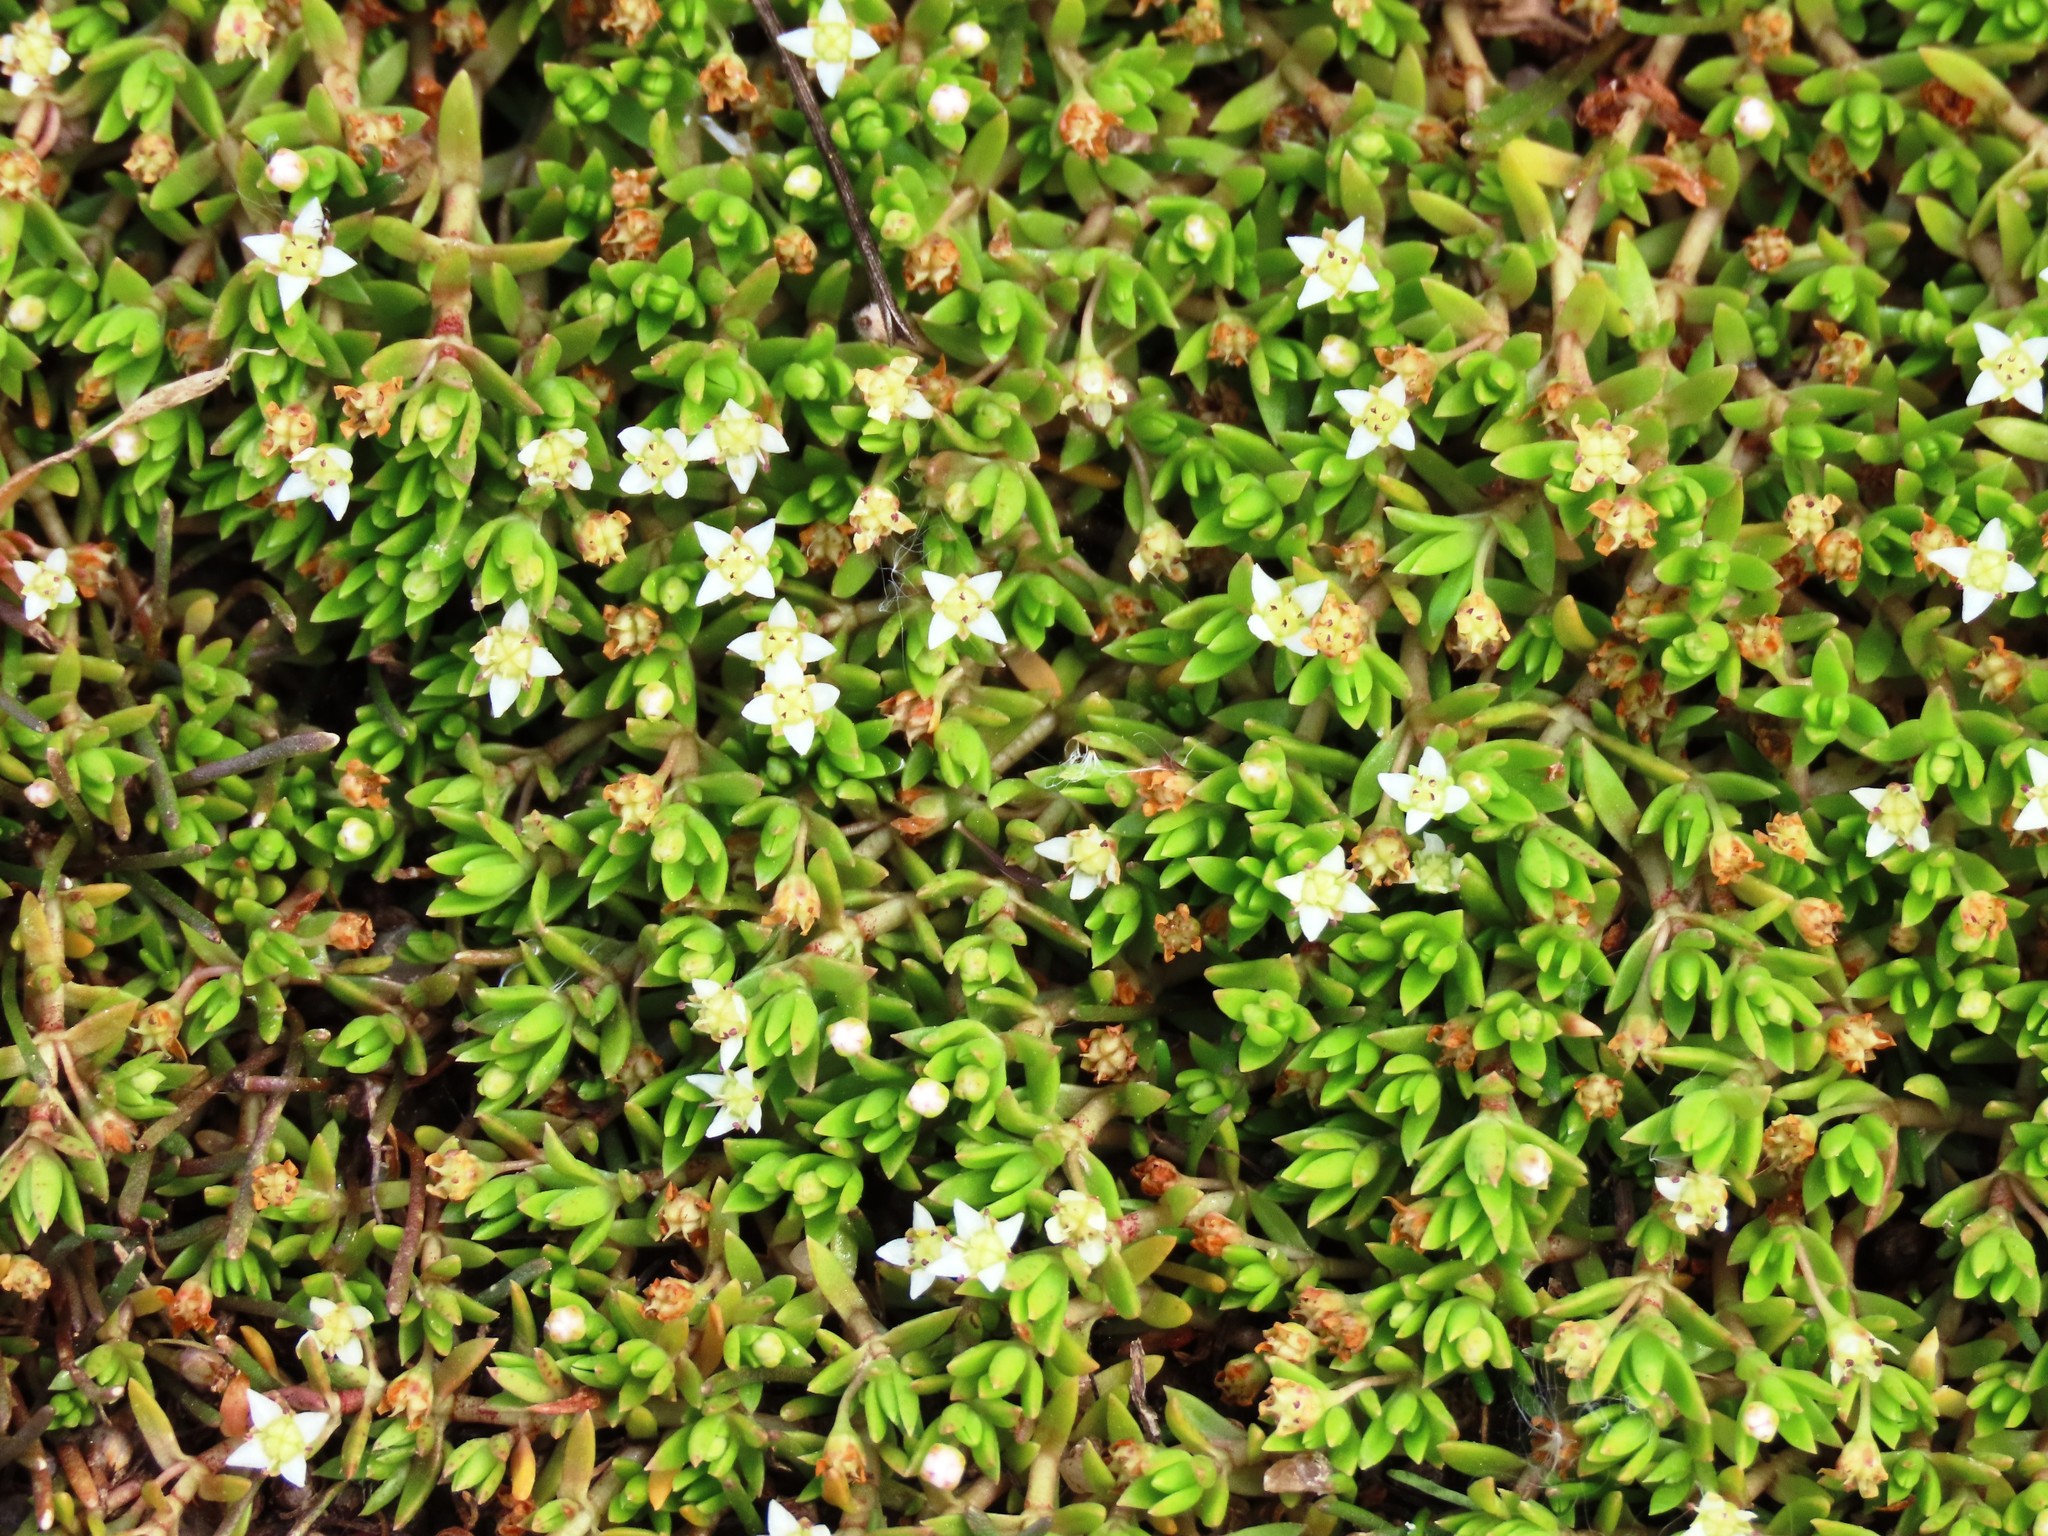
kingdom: Plantae
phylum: Tracheophyta
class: Magnoliopsida
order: Saxifragales
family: Crassulaceae
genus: Crassula
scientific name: Crassula helmsii
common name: New zealand pigmyweed
